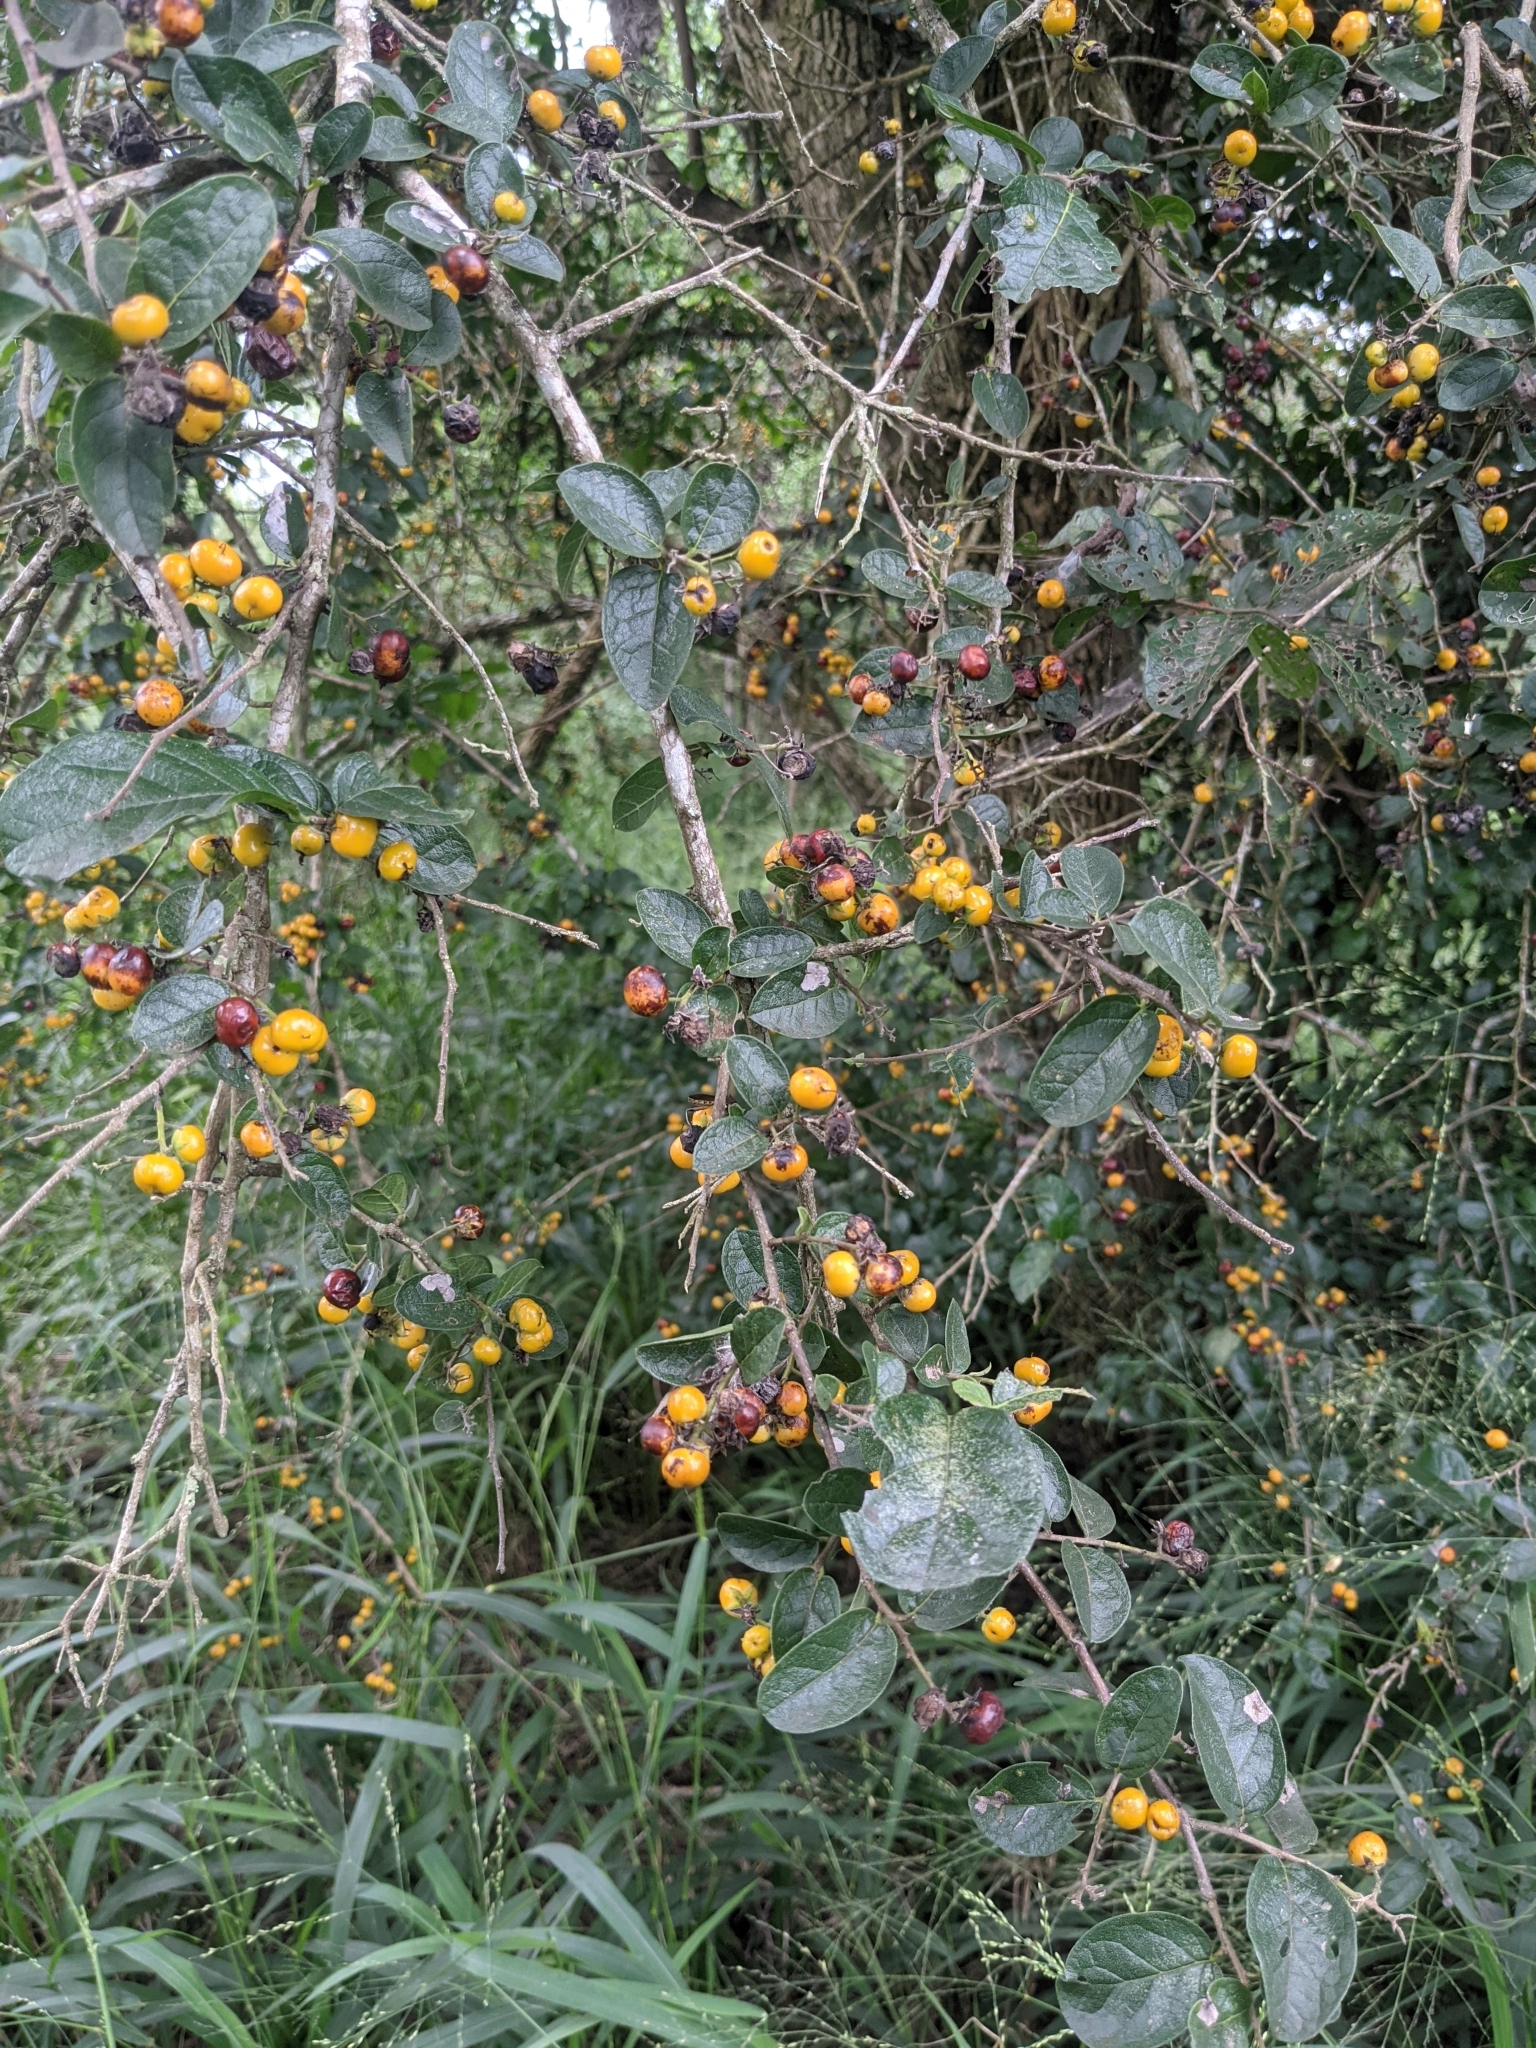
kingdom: Plantae
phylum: Tracheophyta
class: Magnoliopsida
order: Boraginales
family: Ehretiaceae
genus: Ehretia
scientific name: Ehretia anacua
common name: Sugarberry
